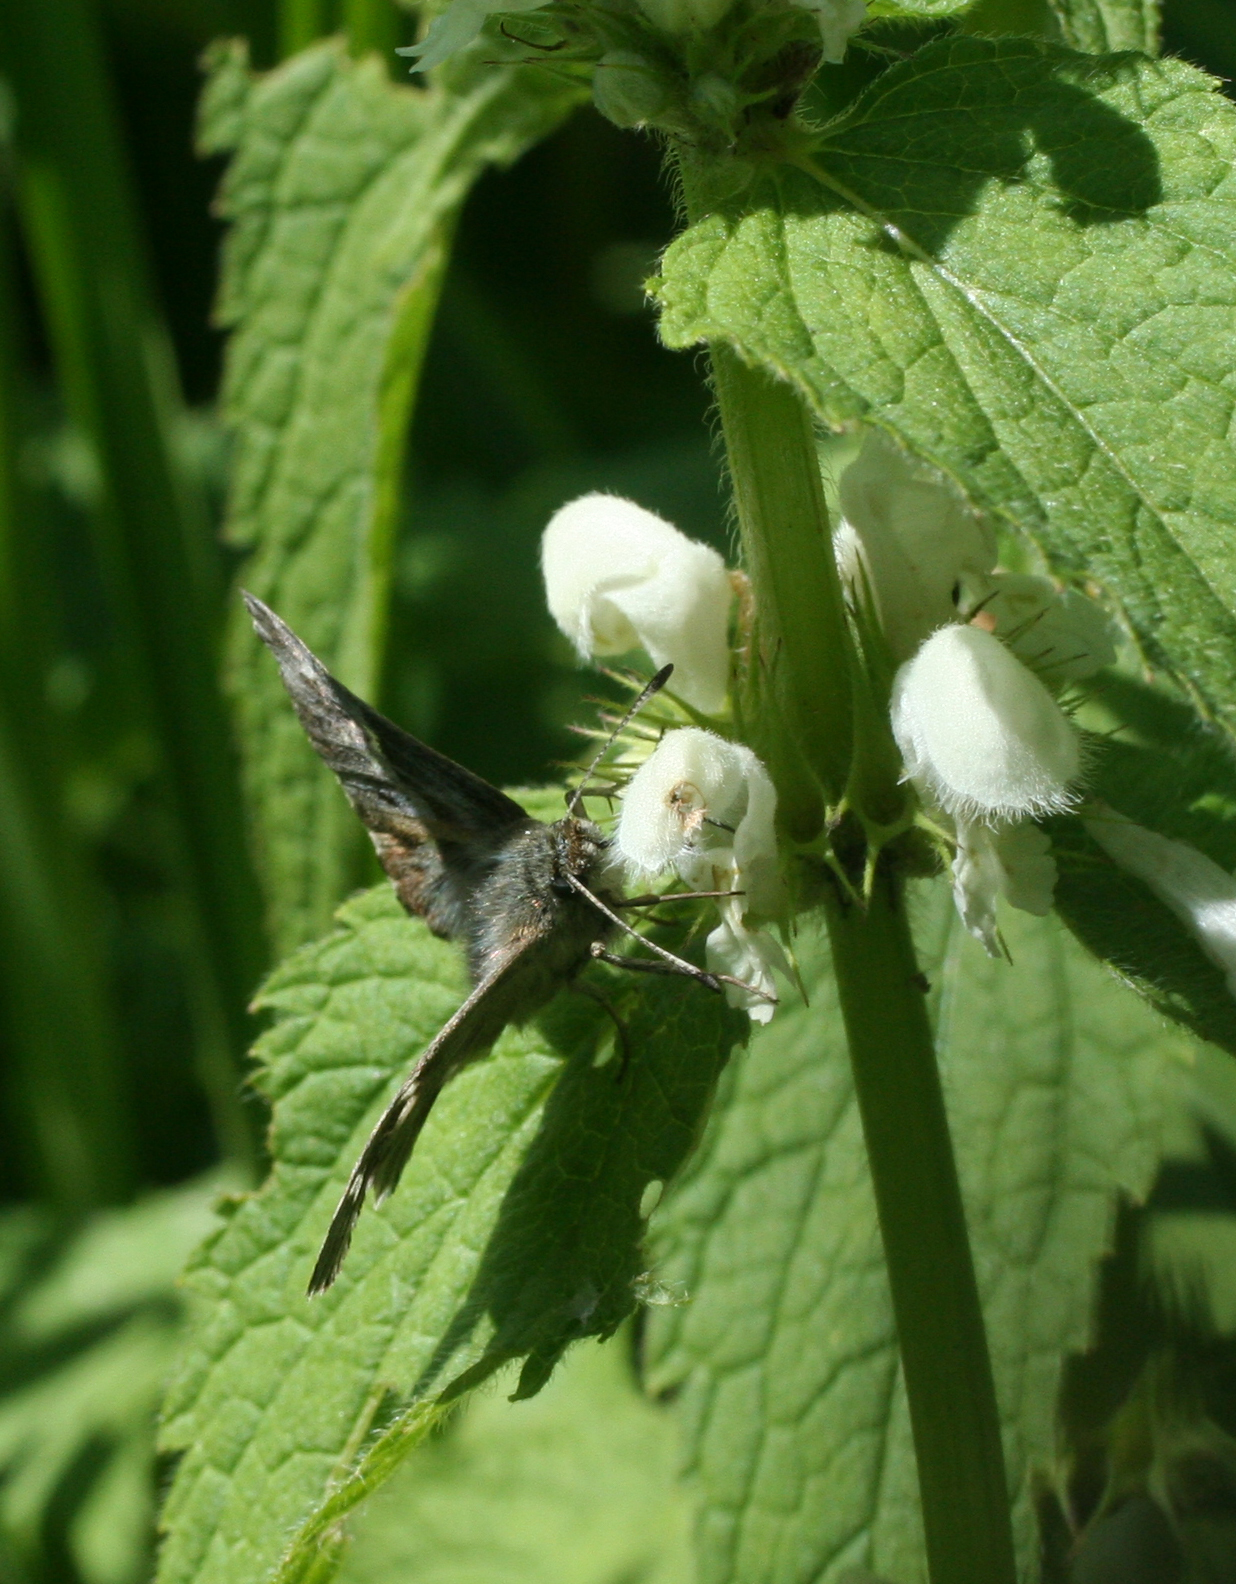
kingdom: Animalia
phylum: Arthropoda
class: Insecta
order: Lepidoptera
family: Hesperiidae
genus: Carcharodus
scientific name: Carcharodus floccifera
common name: Tufted marbled skipper
